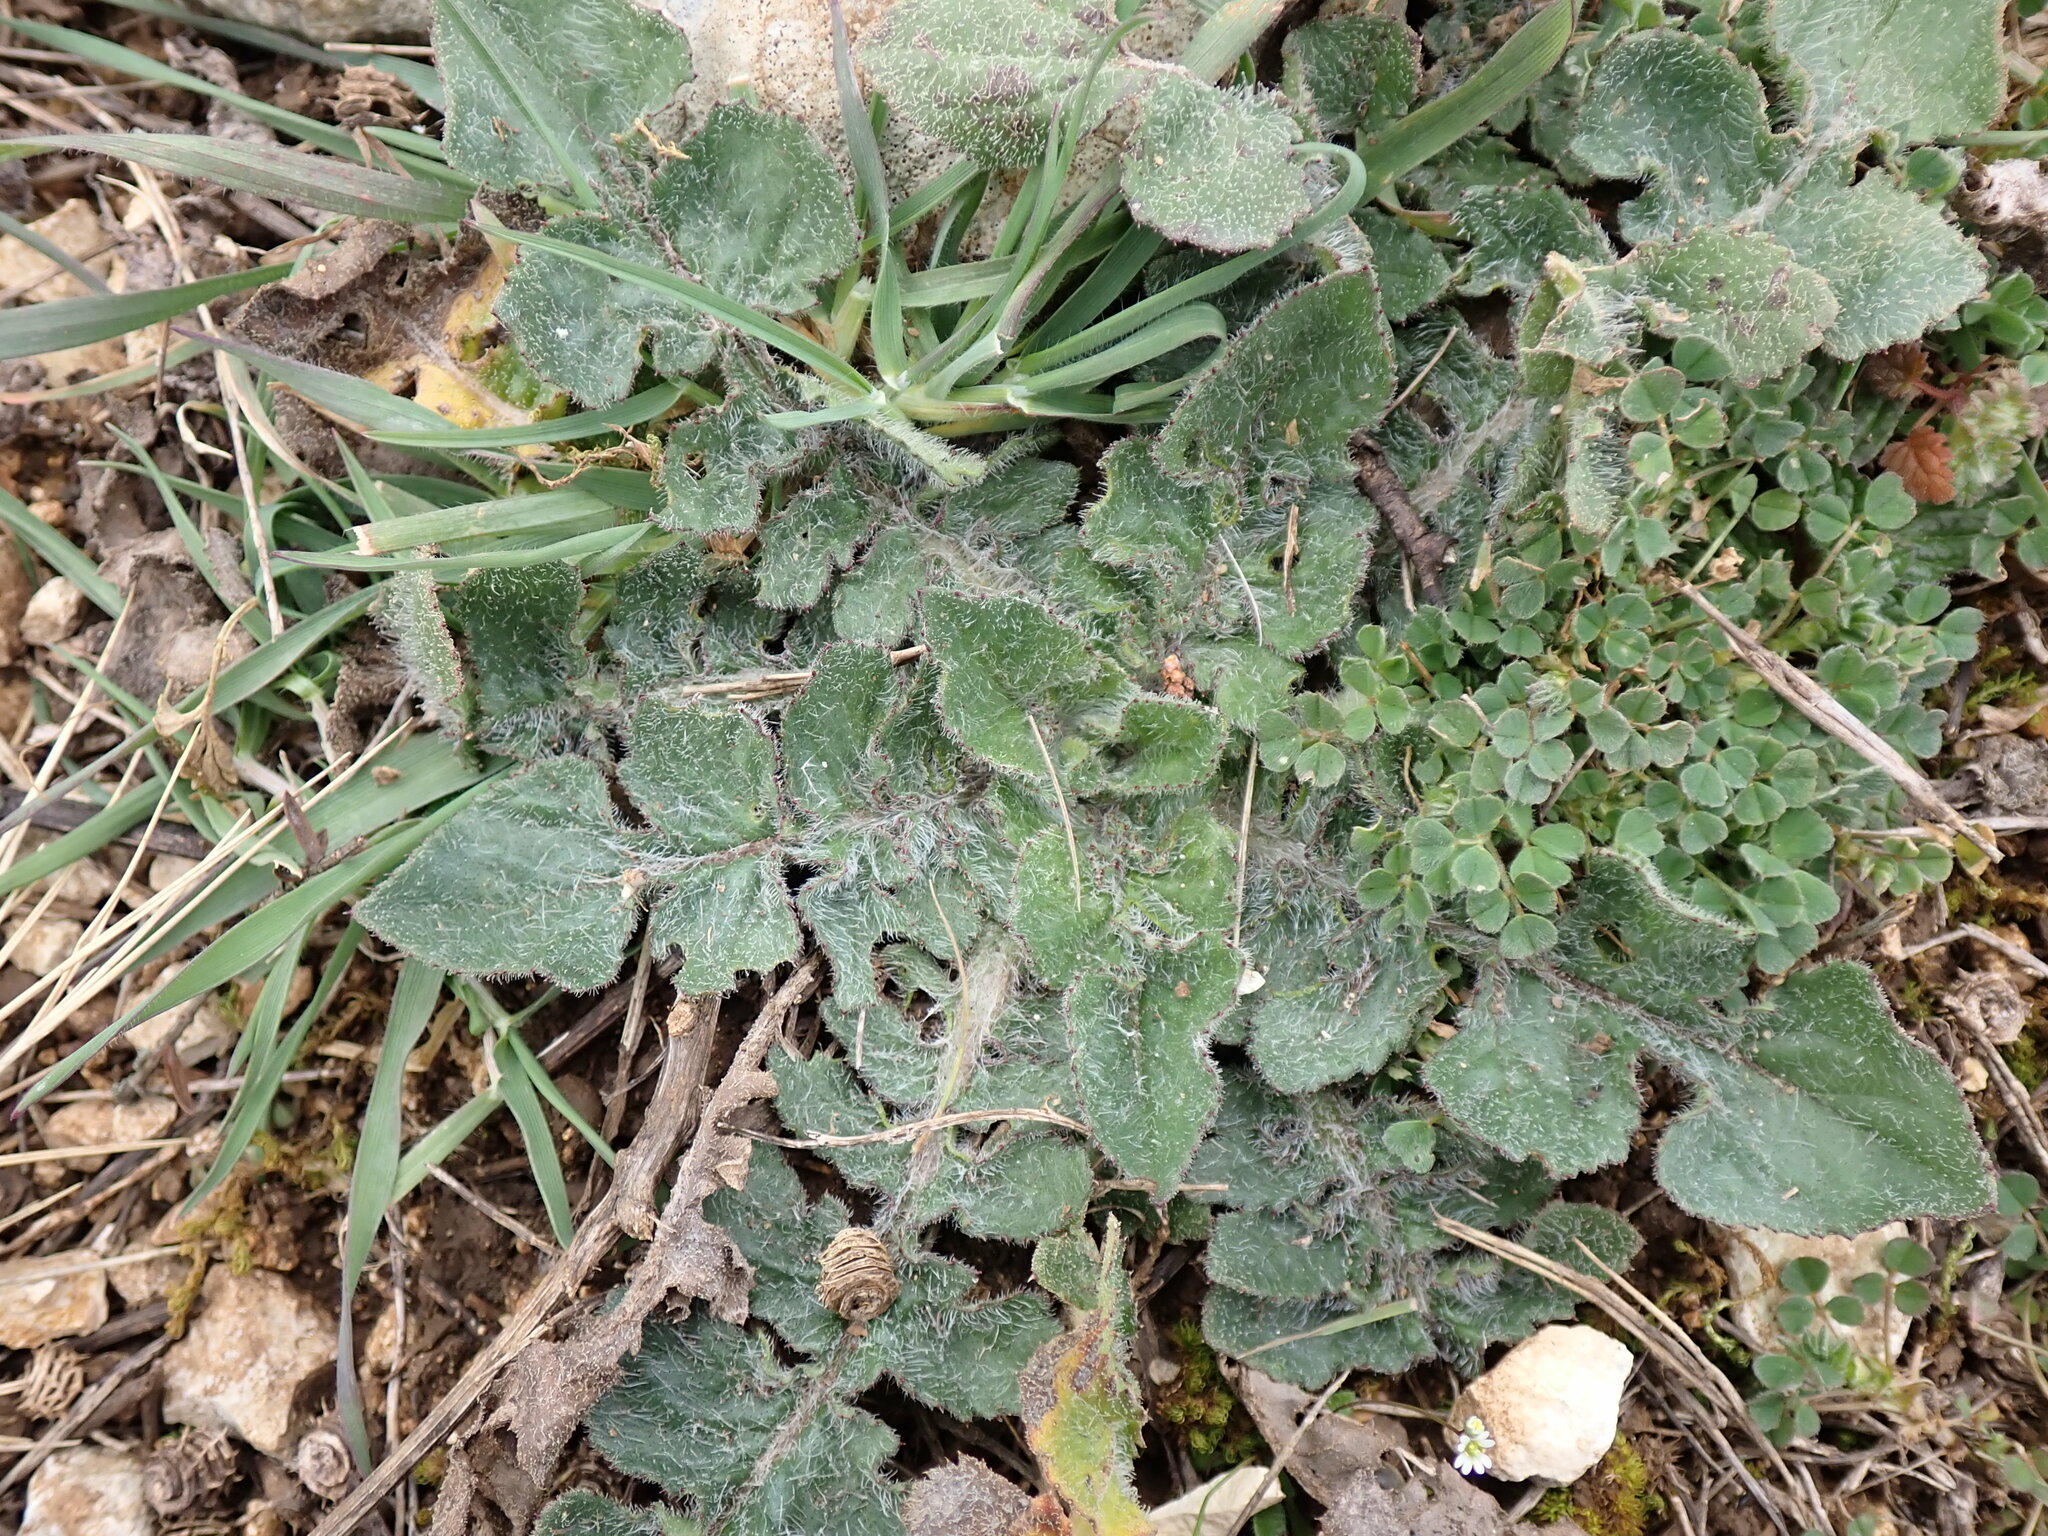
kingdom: Plantae
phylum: Tracheophyta
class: Magnoliopsida
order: Asterales
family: Asteraceae
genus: Mantisalca
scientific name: Mantisalca salmantica
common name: Dagger flower
